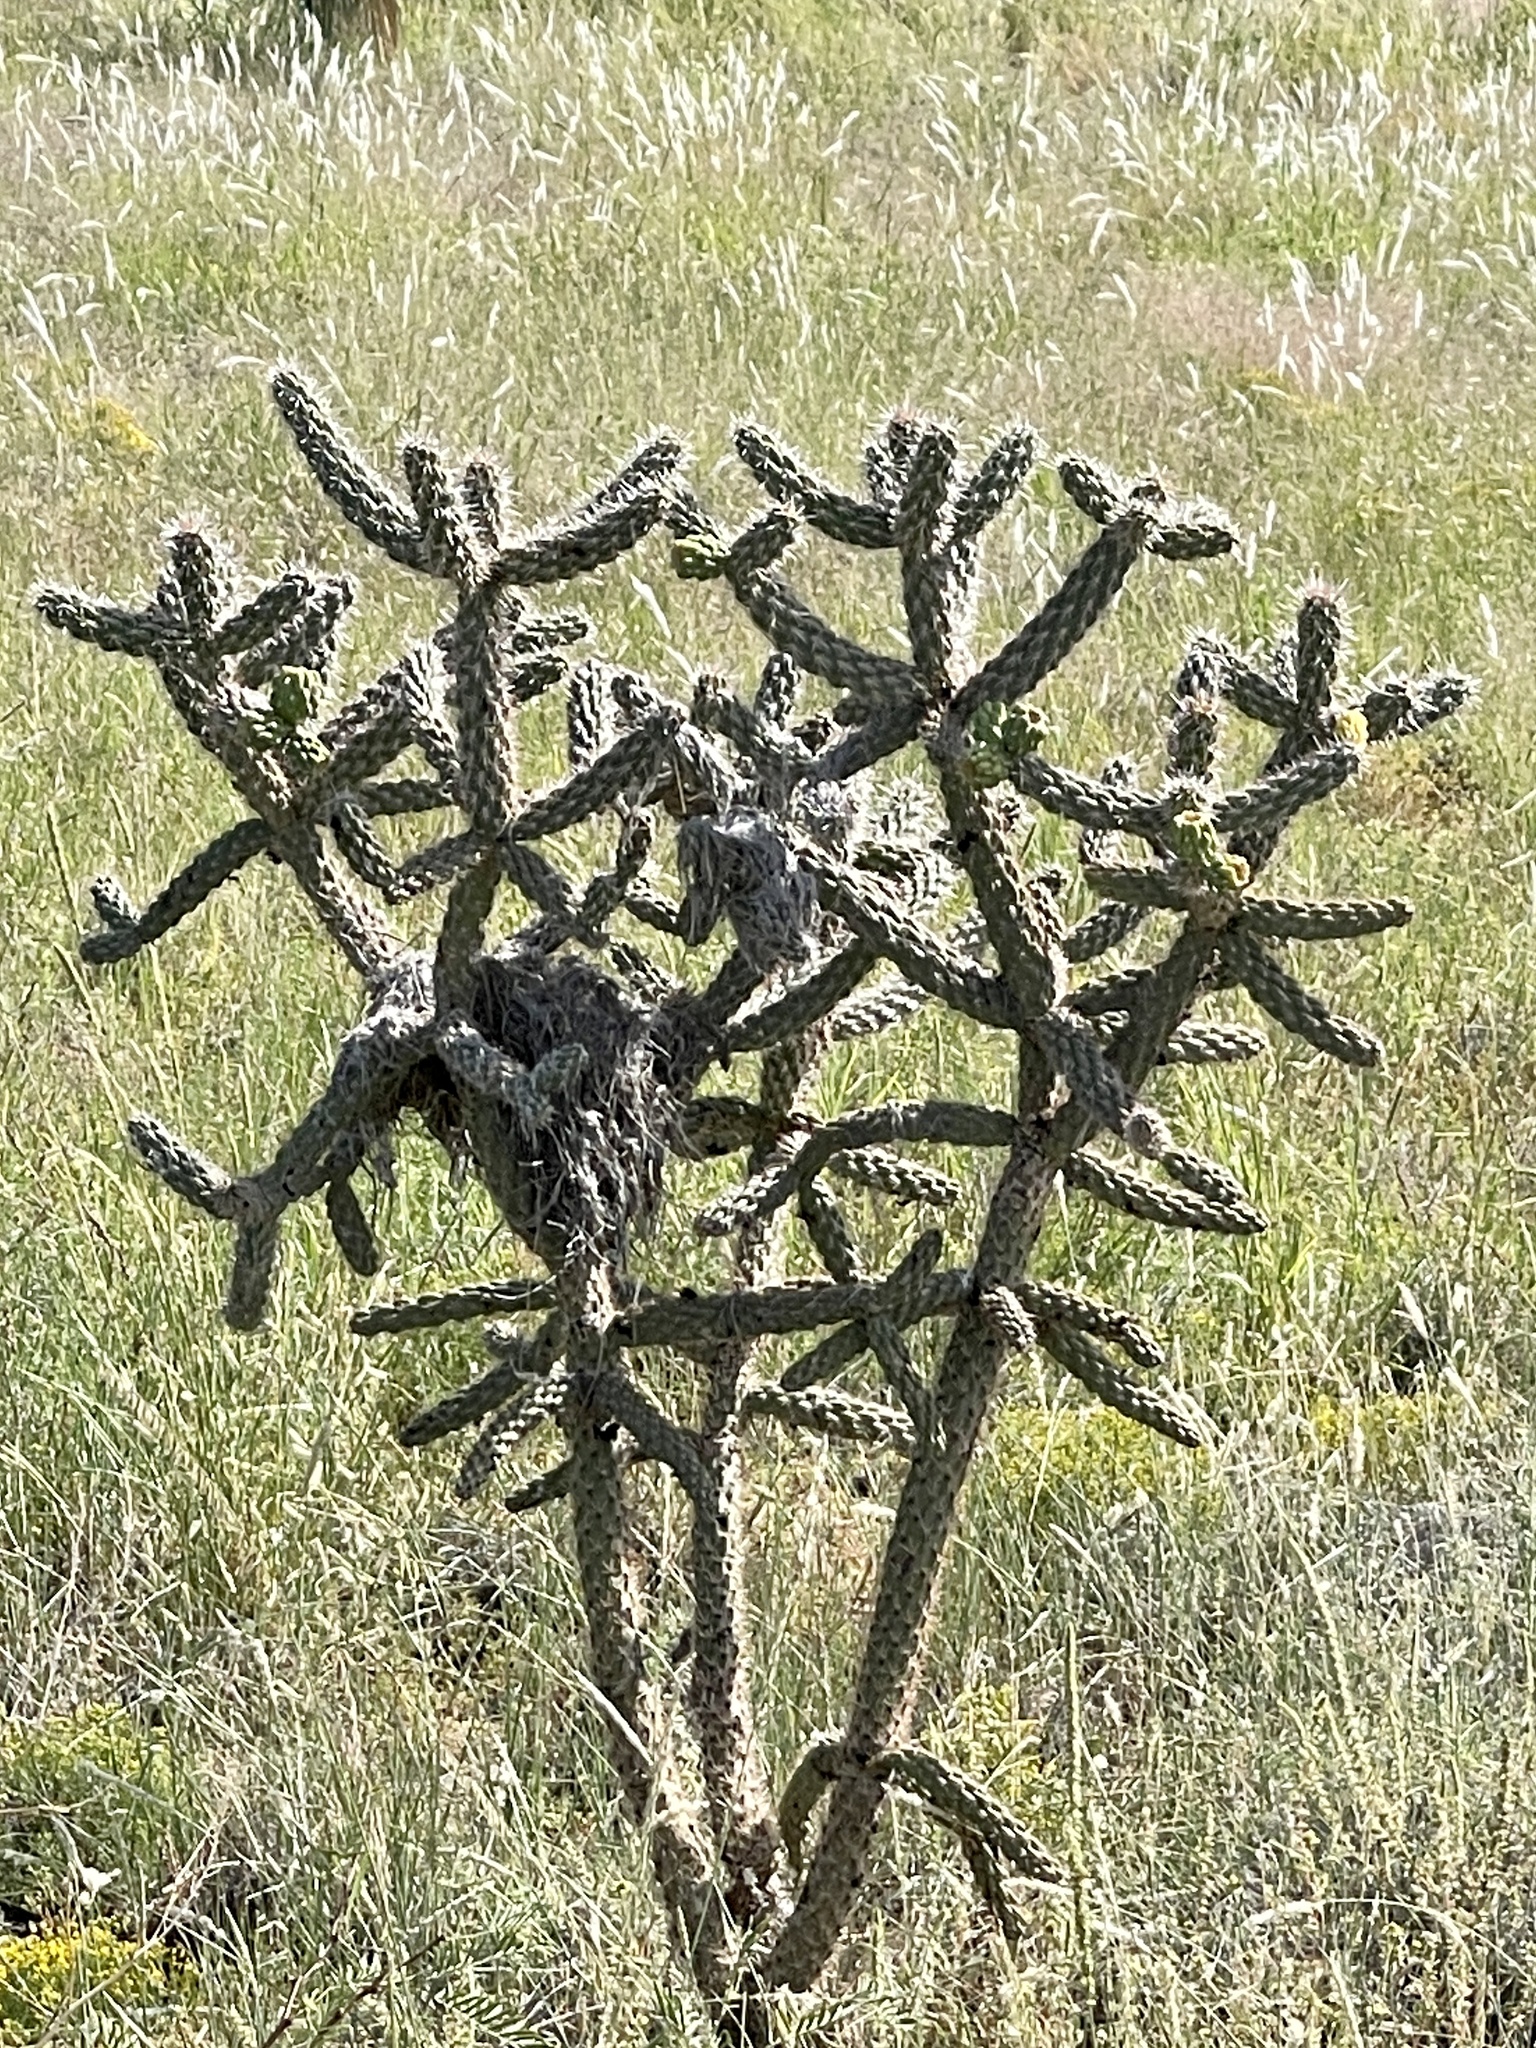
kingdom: Plantae
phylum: Tracheophyta
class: Magnoliopsida
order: Caryophyllales
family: Cactaceae
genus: Cylindropuntia
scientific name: Cylindropuntia imbricata
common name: Candelabrum cactus
